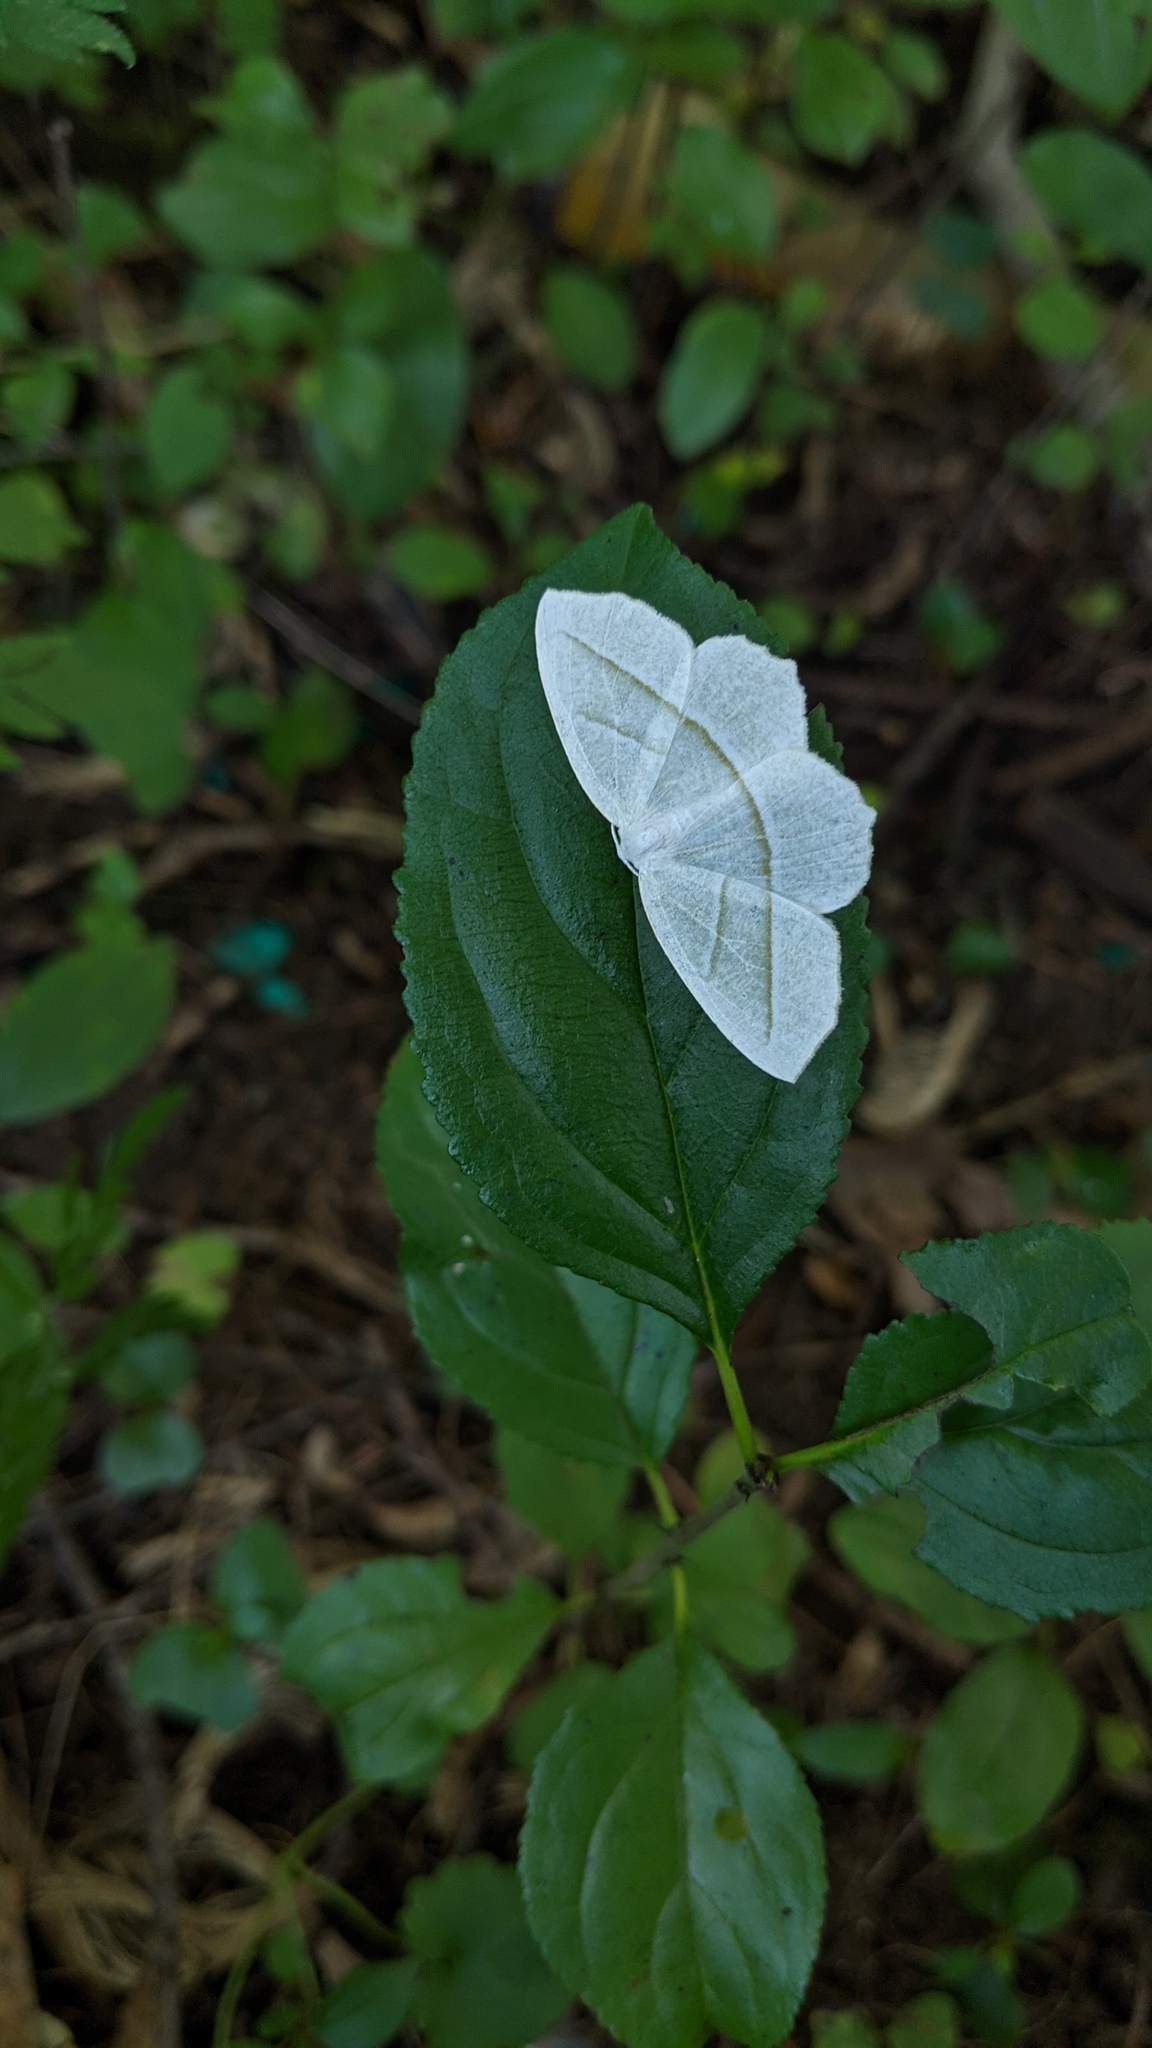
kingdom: Animalia
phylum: Arthropoda
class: Insecta
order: Lepidoptera
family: Geometridae
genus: Campaea
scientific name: Campaea perlata
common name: Fringed looper
